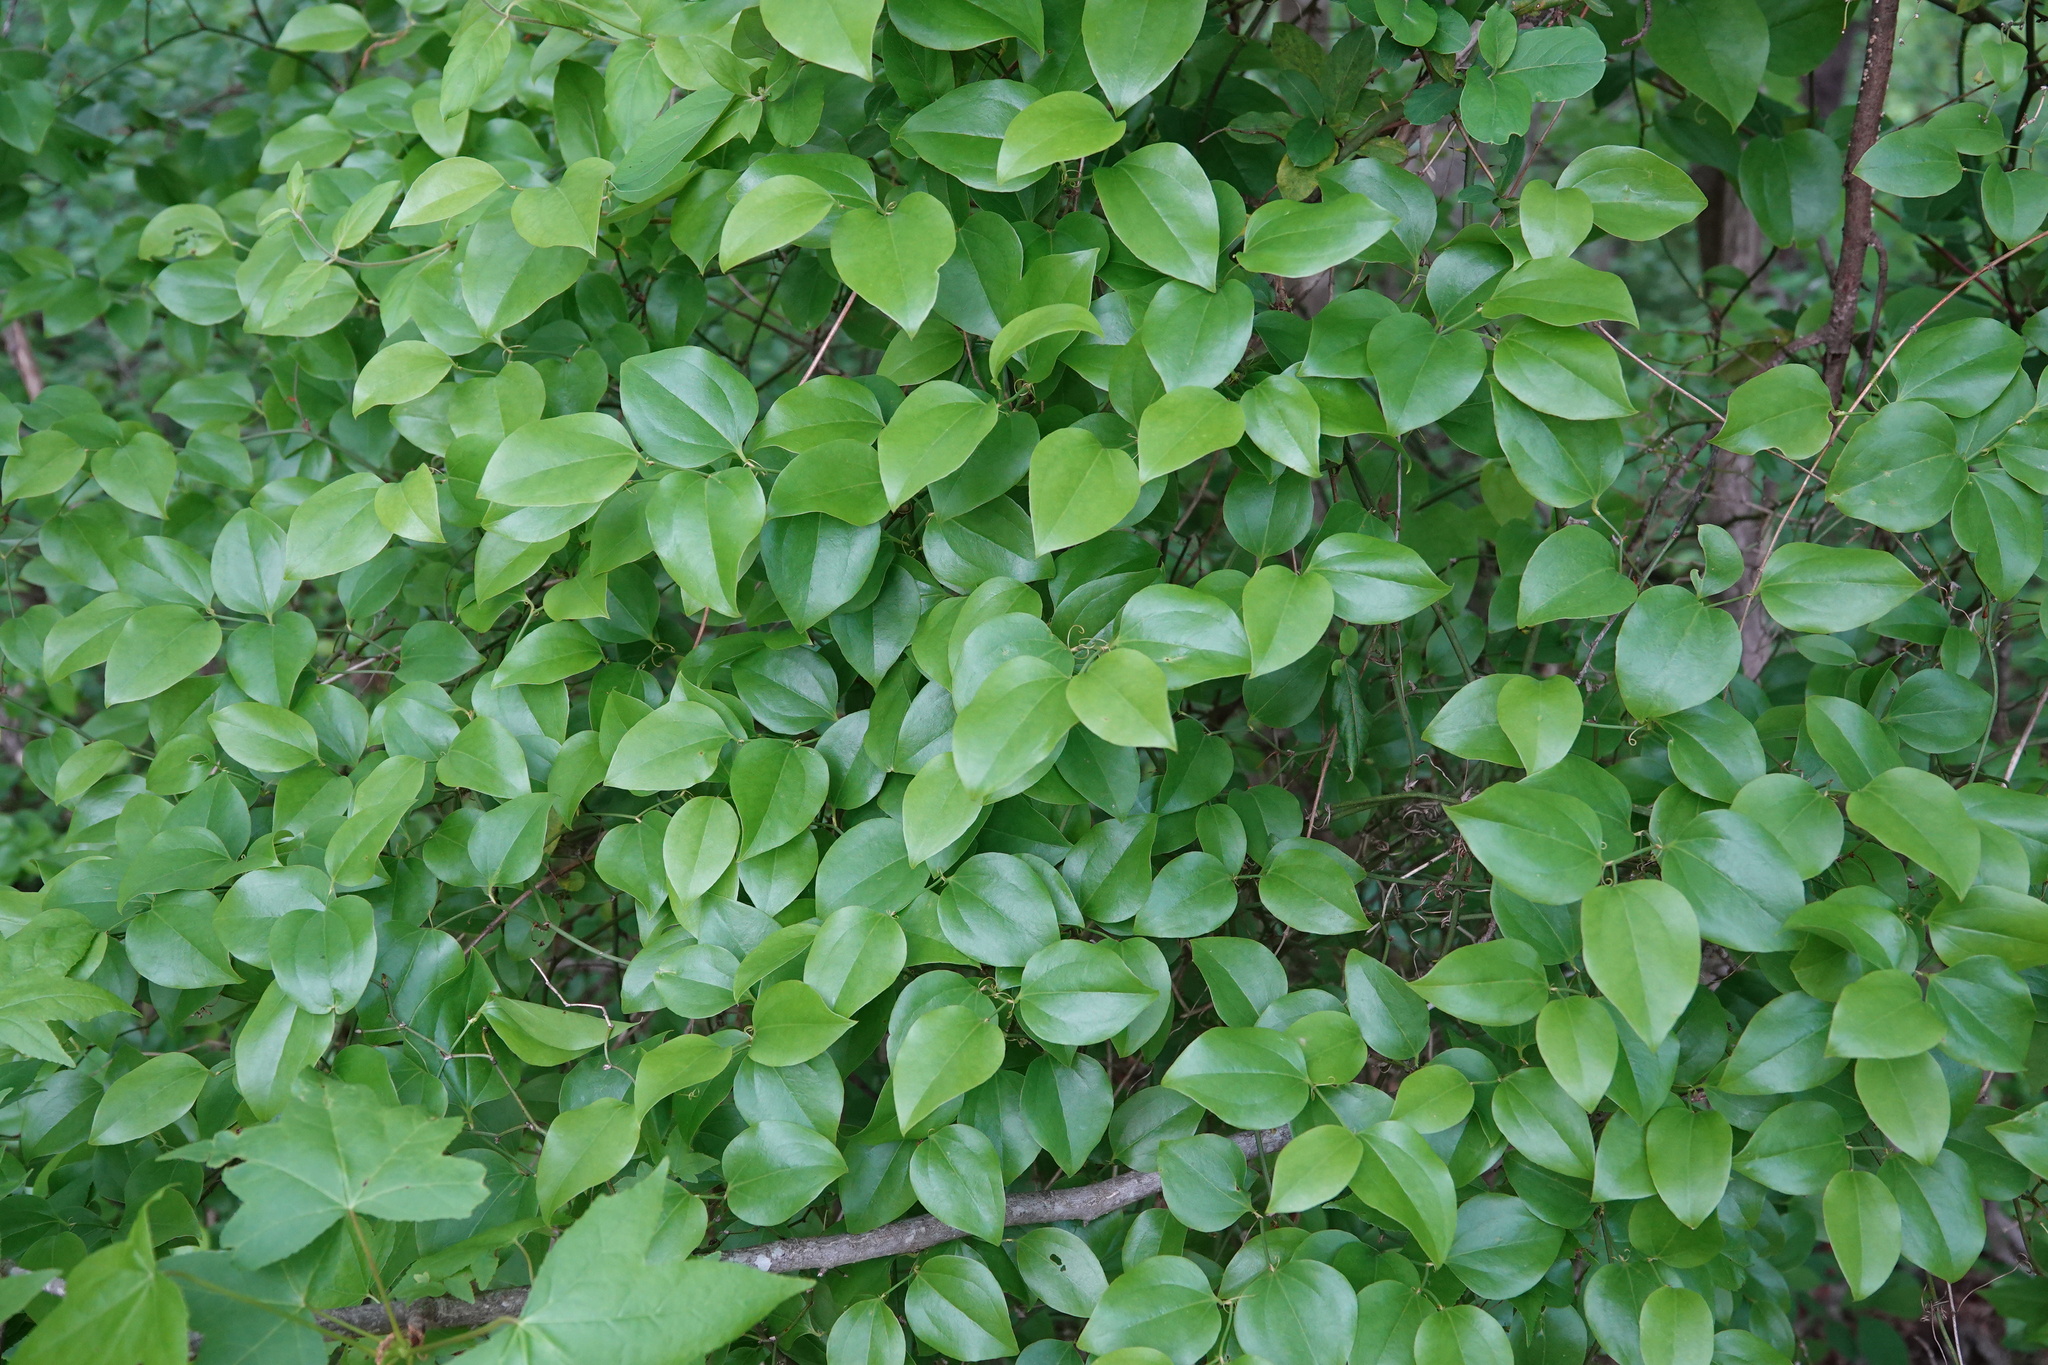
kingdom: Plantae
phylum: Tracheophyta
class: Liliopsida
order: Liliales
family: Smilacaceae
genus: Smilax
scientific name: Smilax rotundifolia
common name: Bullbriar
